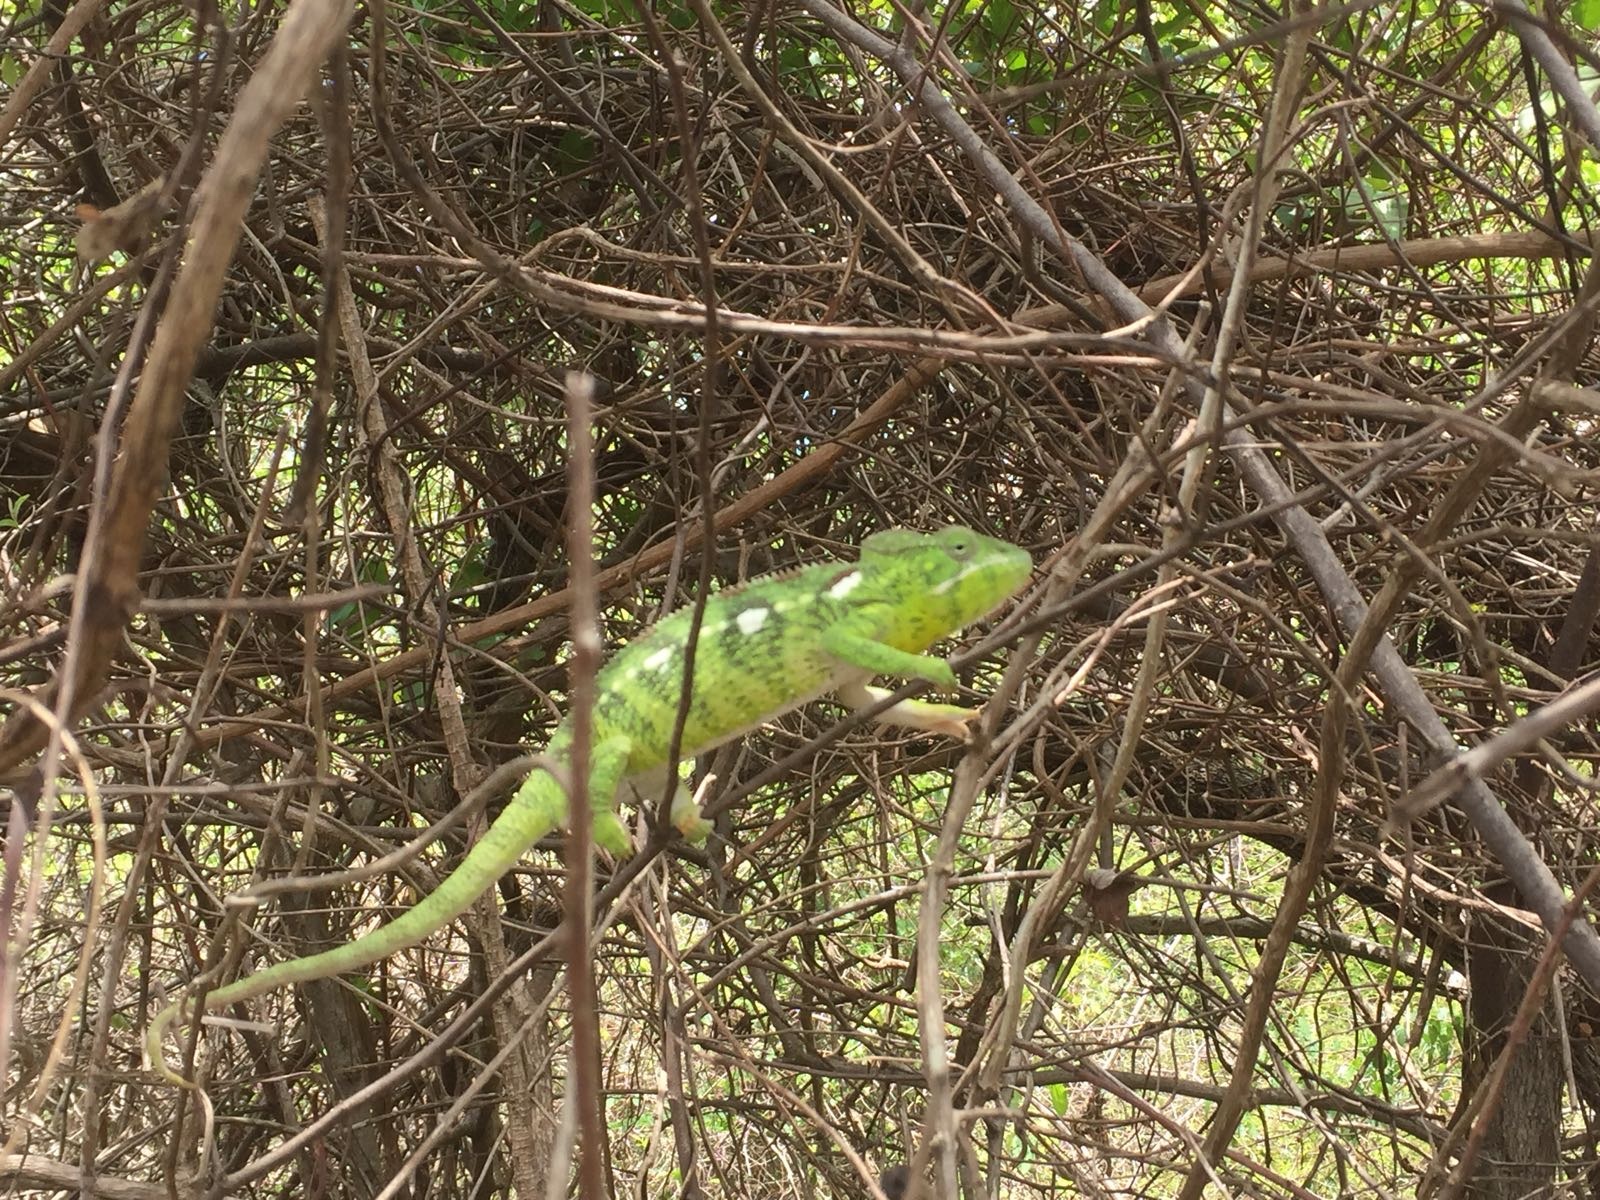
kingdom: Animalia
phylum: Chordata
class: Squamata
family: Chamaeleonidae
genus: Furcifer
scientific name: Furcifer oustaleti
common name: Oustalet's chameleon
